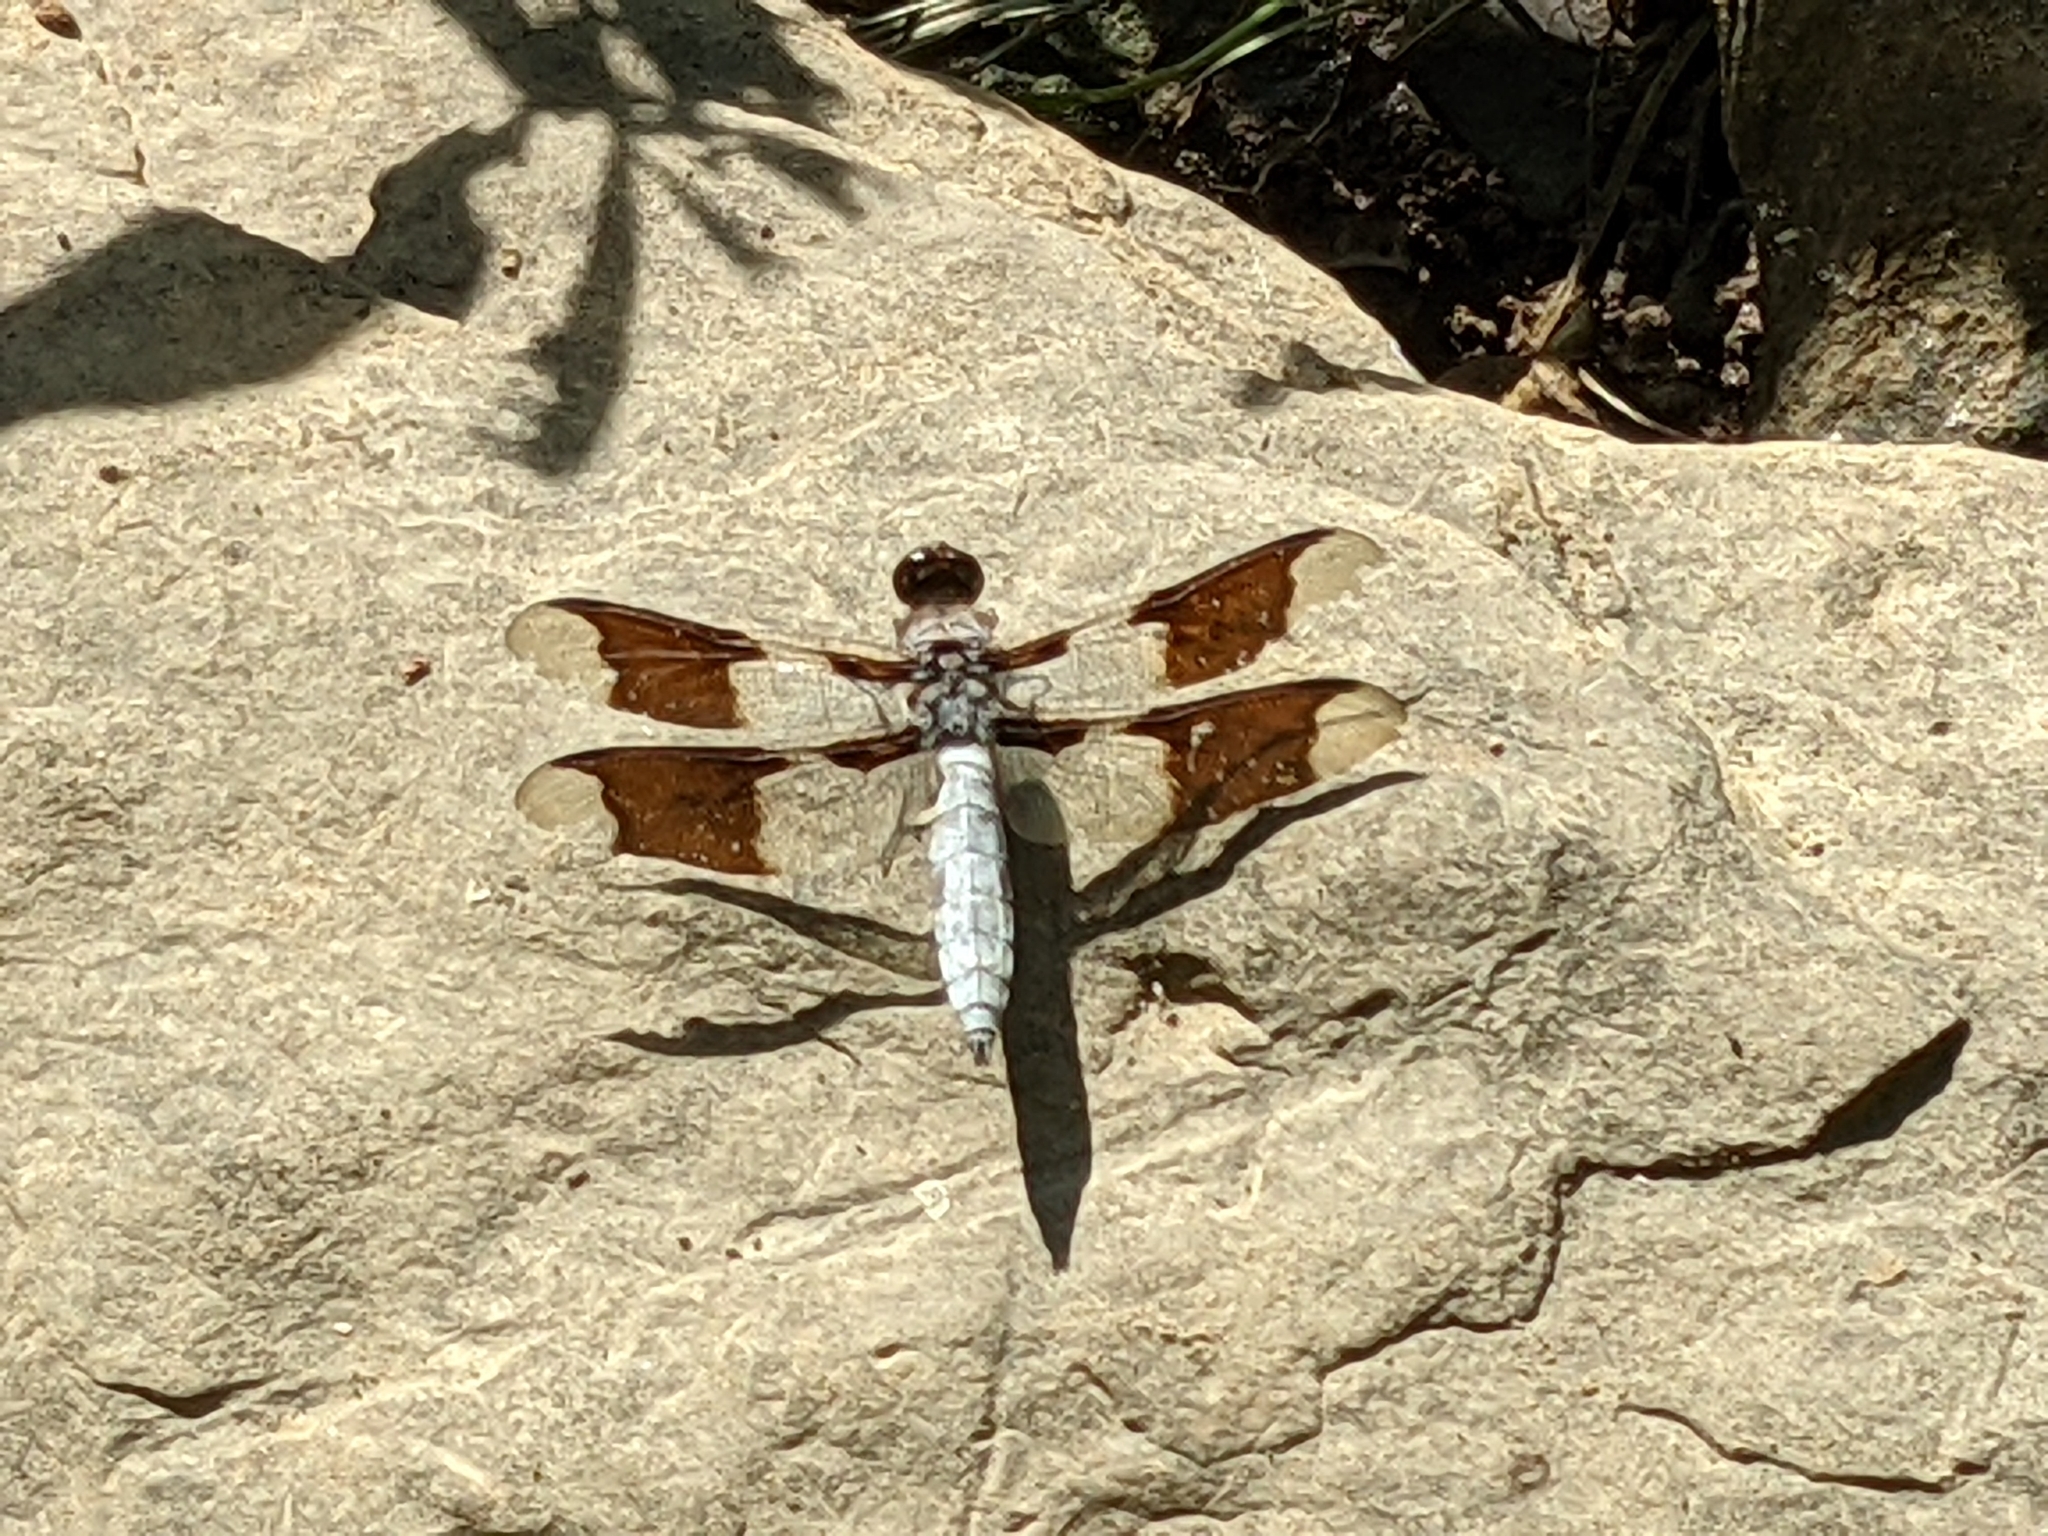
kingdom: Animalia
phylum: Arthropoda
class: Insecta
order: Odonata
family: Libellulidae
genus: Plathemis
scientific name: Plathemis lydia
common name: Common whitetail
